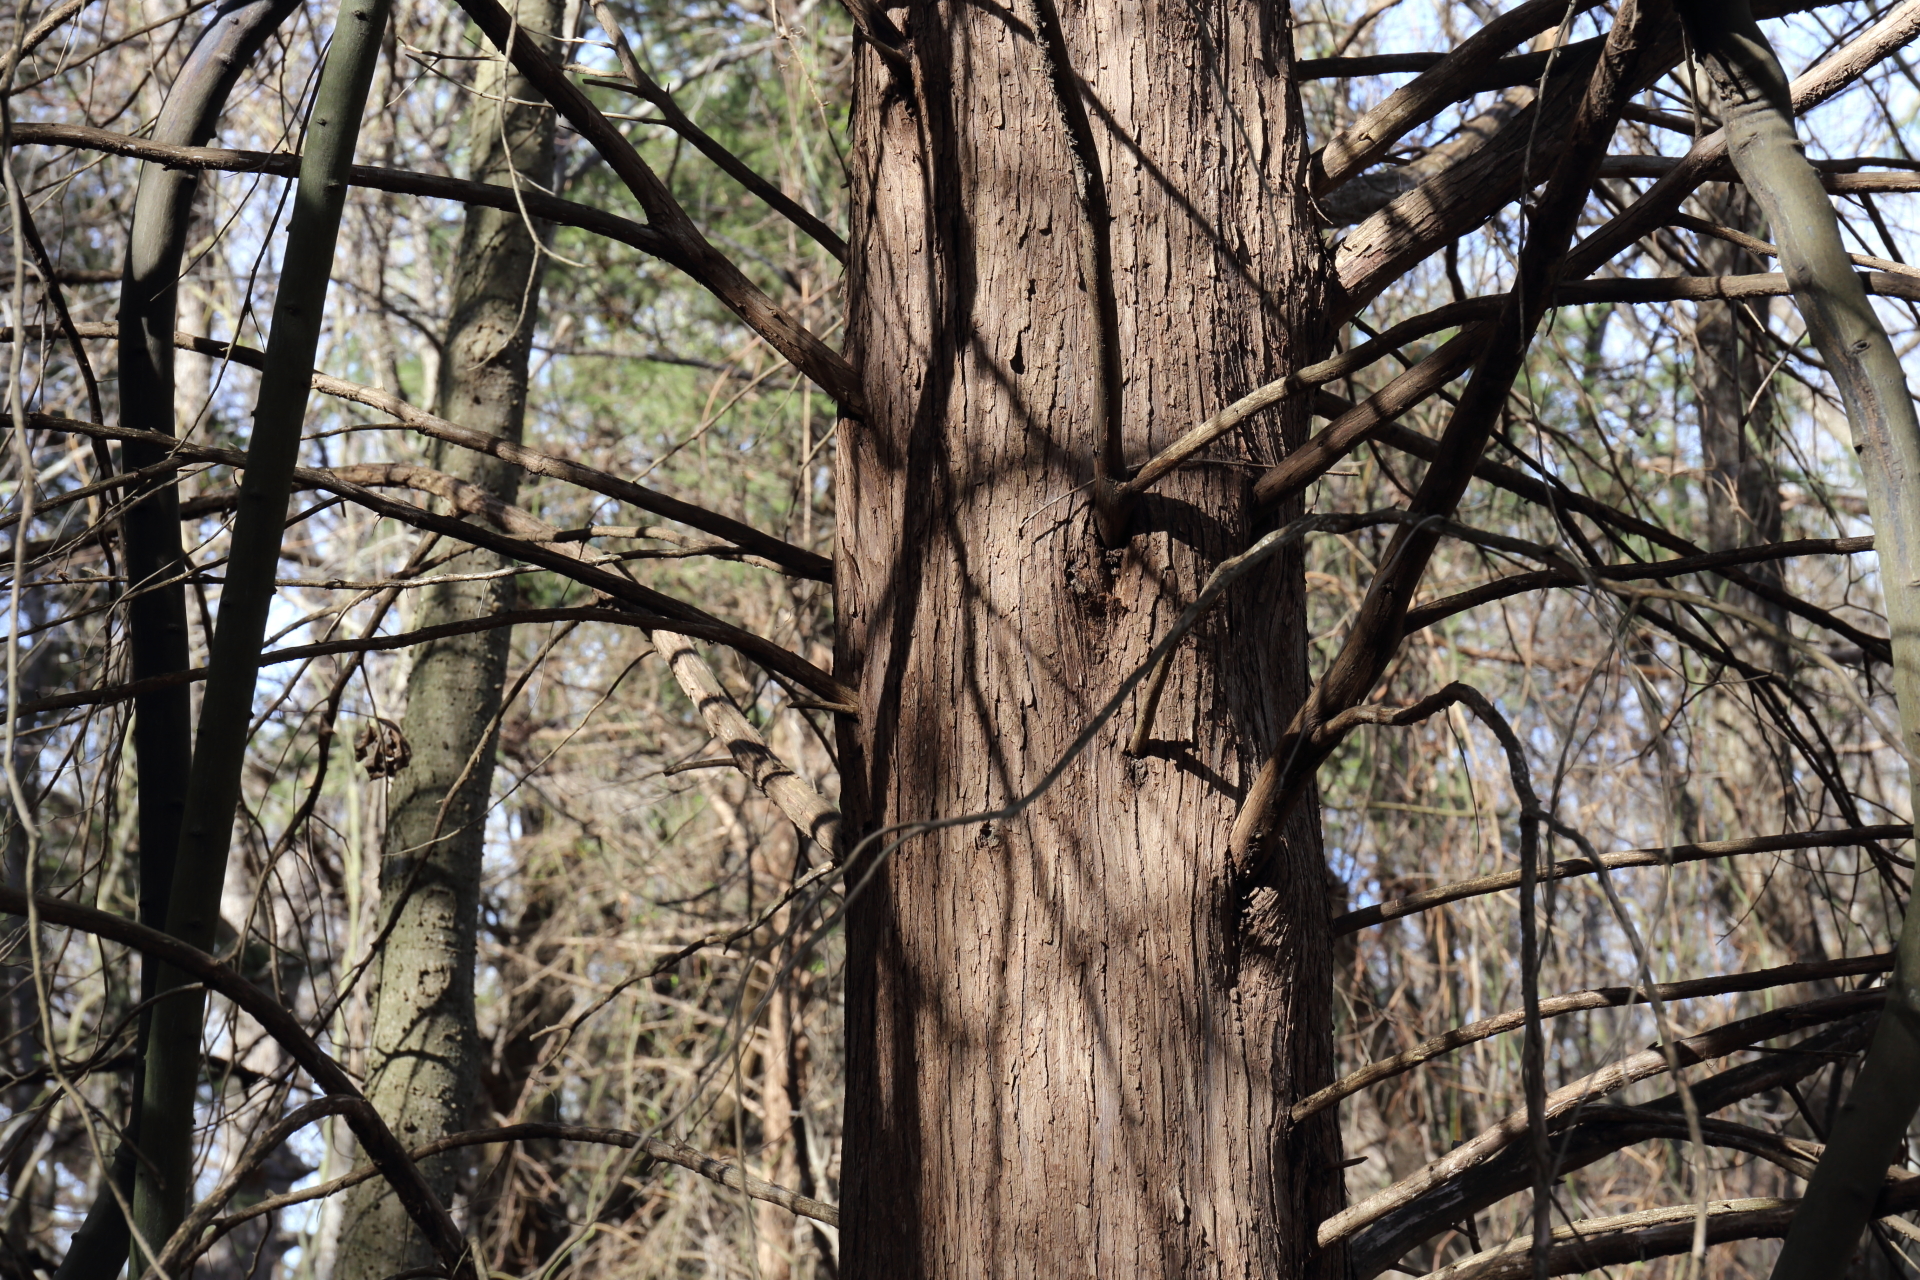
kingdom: Plantae
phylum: Tracheophyta
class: Pinopsida
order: Pinales
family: Cupressaceae
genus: Juniperus
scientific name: Juniperus virginiana
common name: Red juniper
